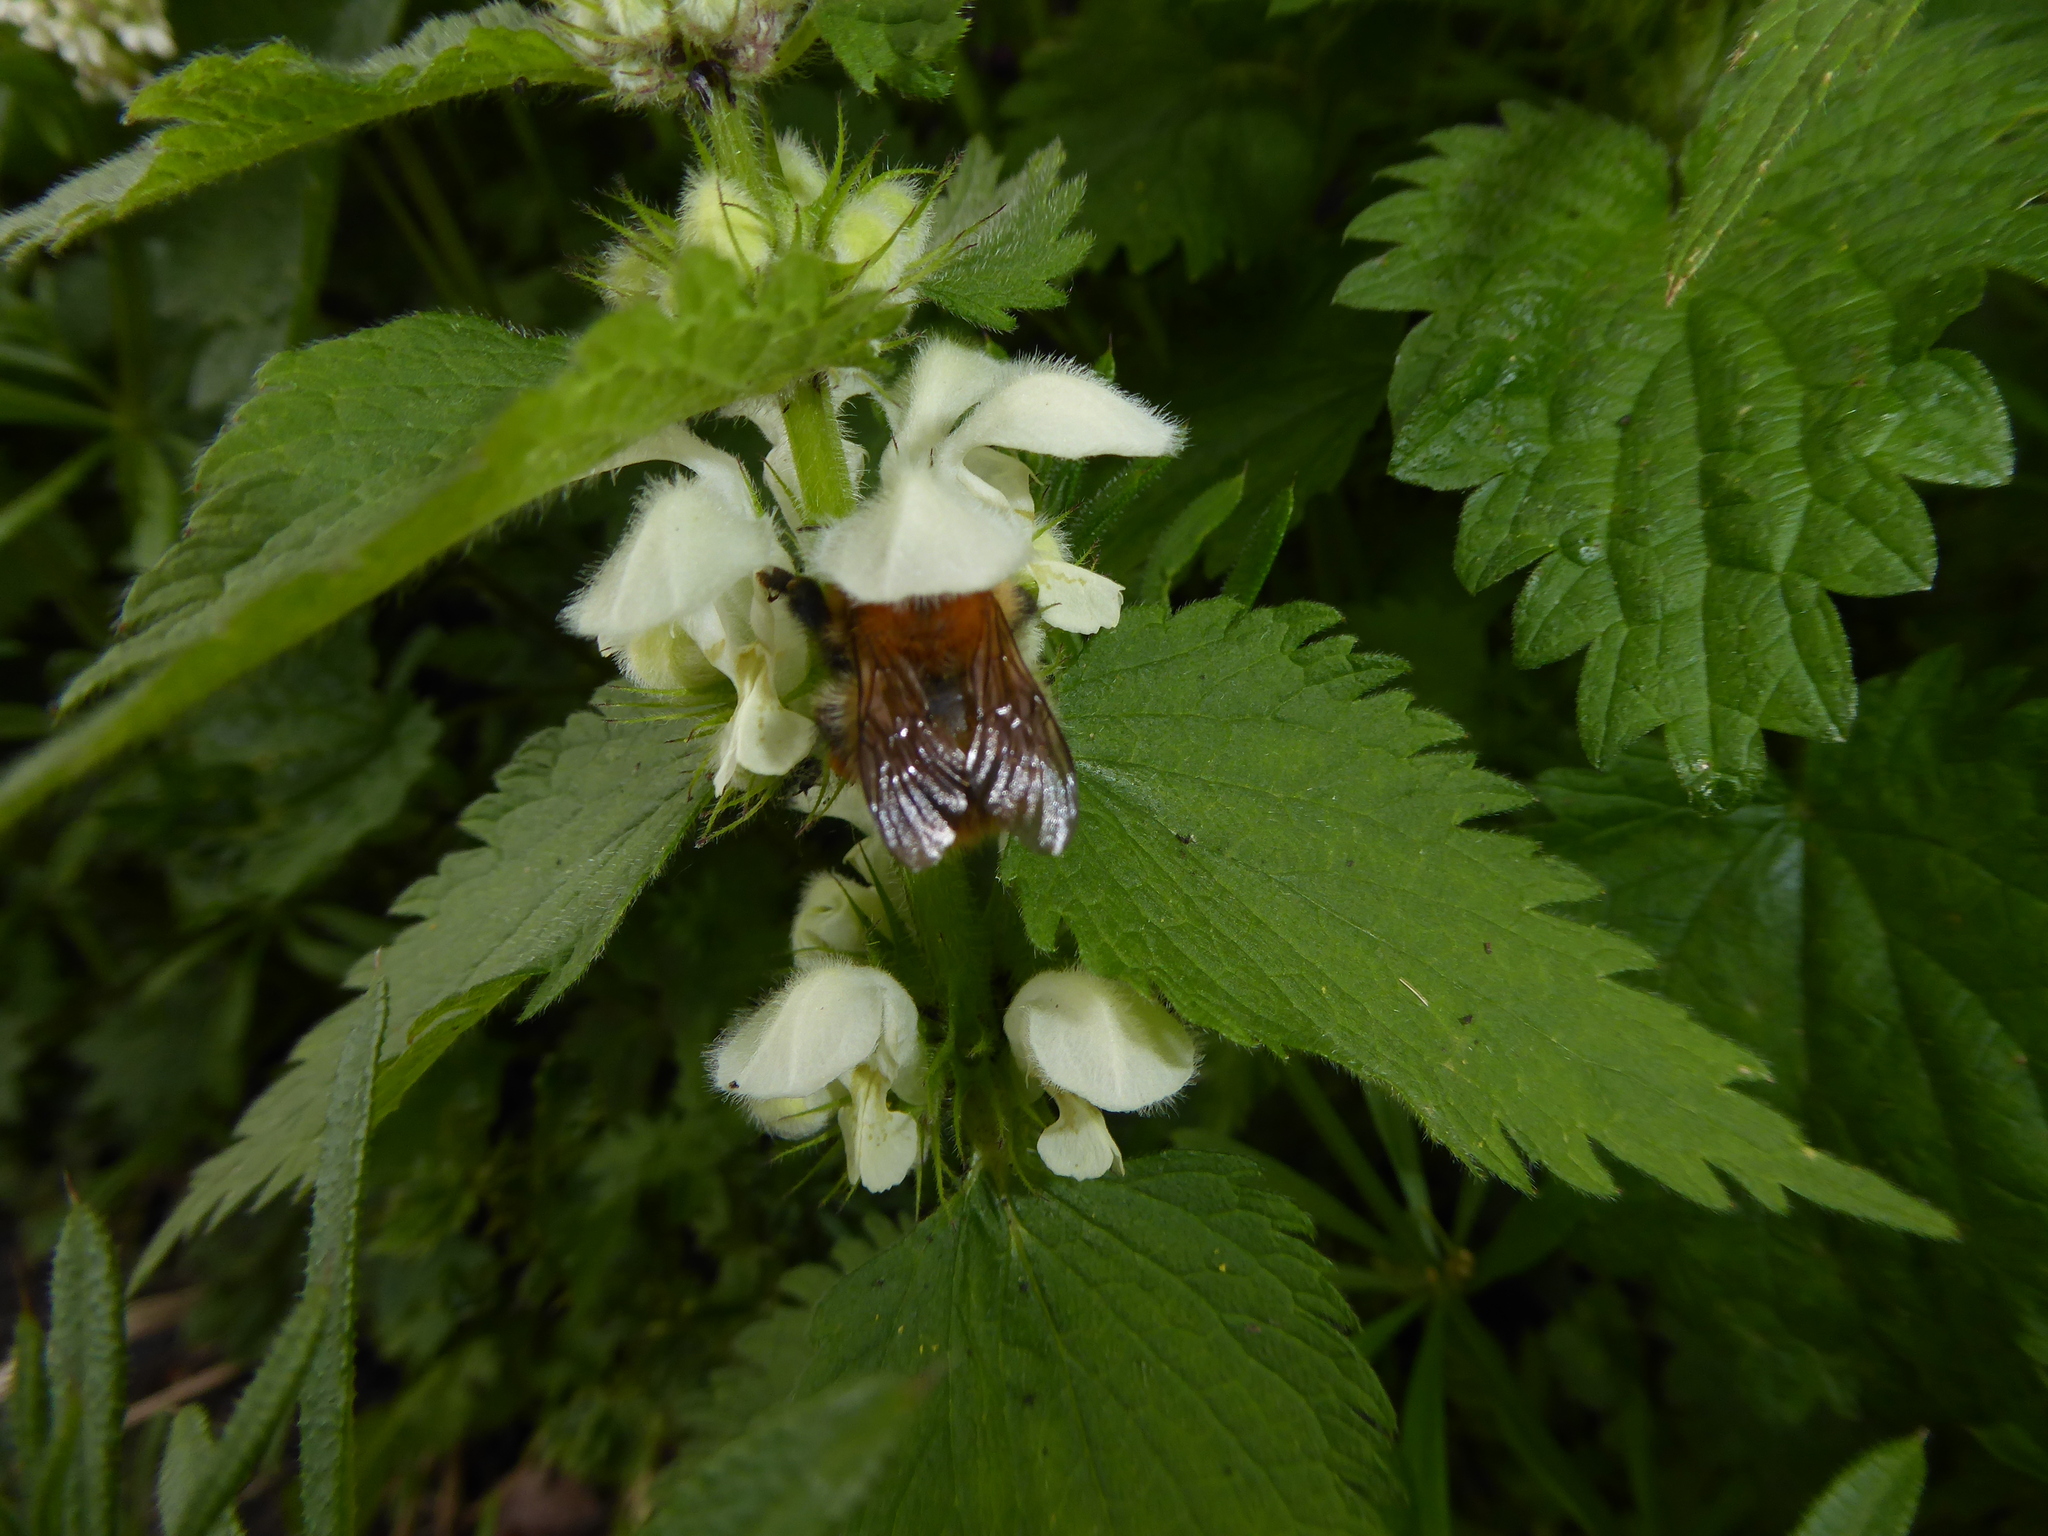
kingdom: Animalia
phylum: Arthropoda
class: Insecta
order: Hymenoptera
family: Apidae
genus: Bombus
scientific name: Bombus pascuorum
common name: Common carder bee
